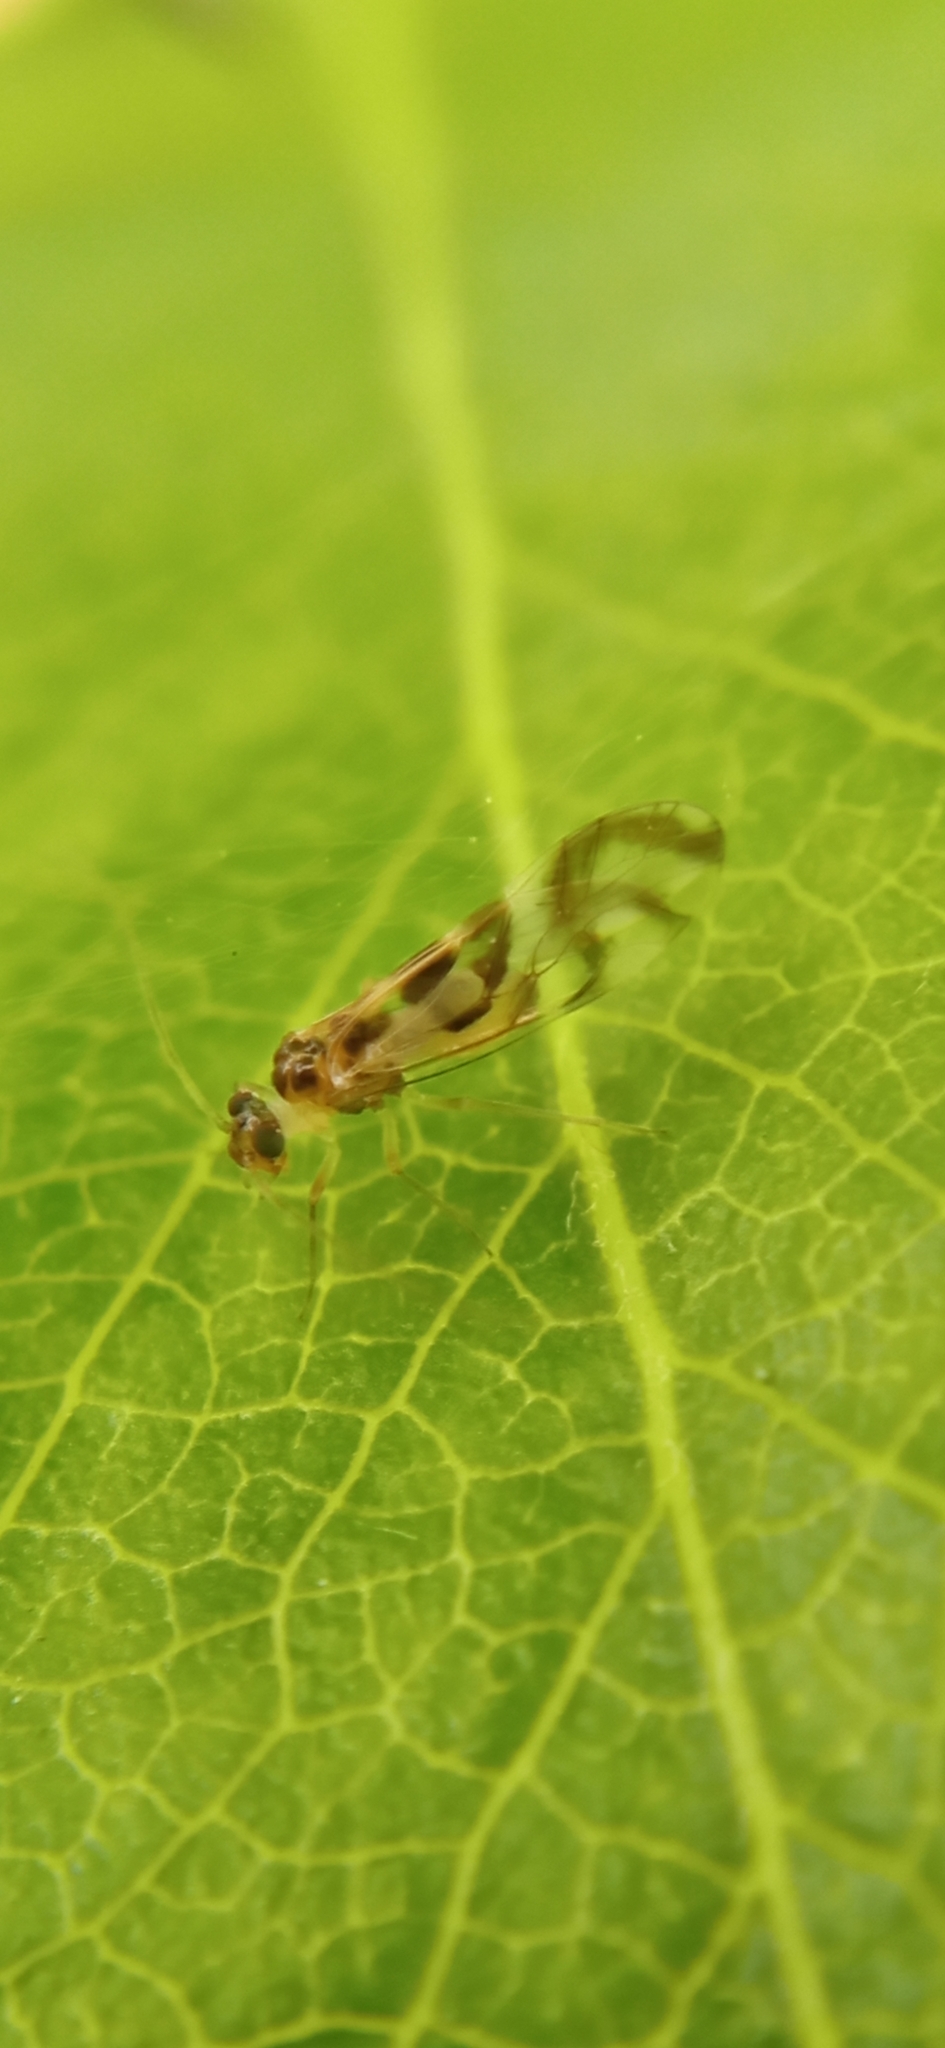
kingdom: Animalia
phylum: Arthropoda
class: Insecta
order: Psocodea
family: Stenopsocidae
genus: Graphopsocus
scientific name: Graphopsocus cruciatus
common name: Lizard bark louse
